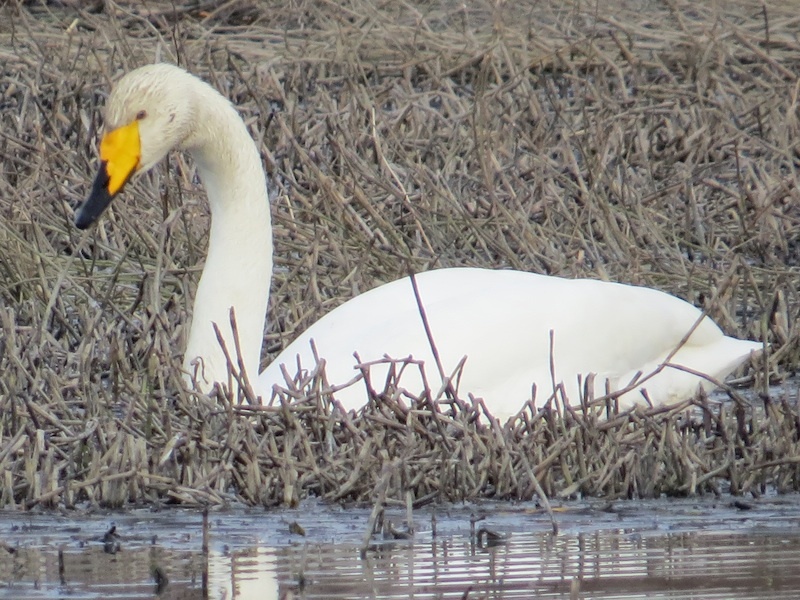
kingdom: Animalia
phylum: Chordata
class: Aves
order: Anseriformes
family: Anatidae
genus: Cygnus
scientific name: Cygnus cygnus
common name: Whooper swan
